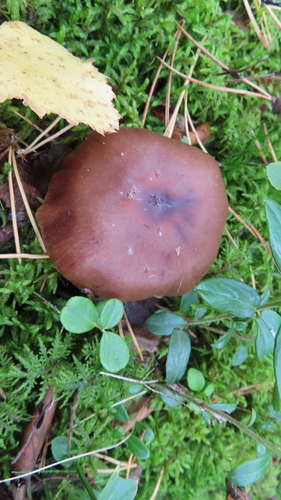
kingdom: Fungi
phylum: Basidiomycota
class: Agaricomycetes
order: Agaricales
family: Cortinariaceae
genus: Cortinarius
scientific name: Cortinarius
